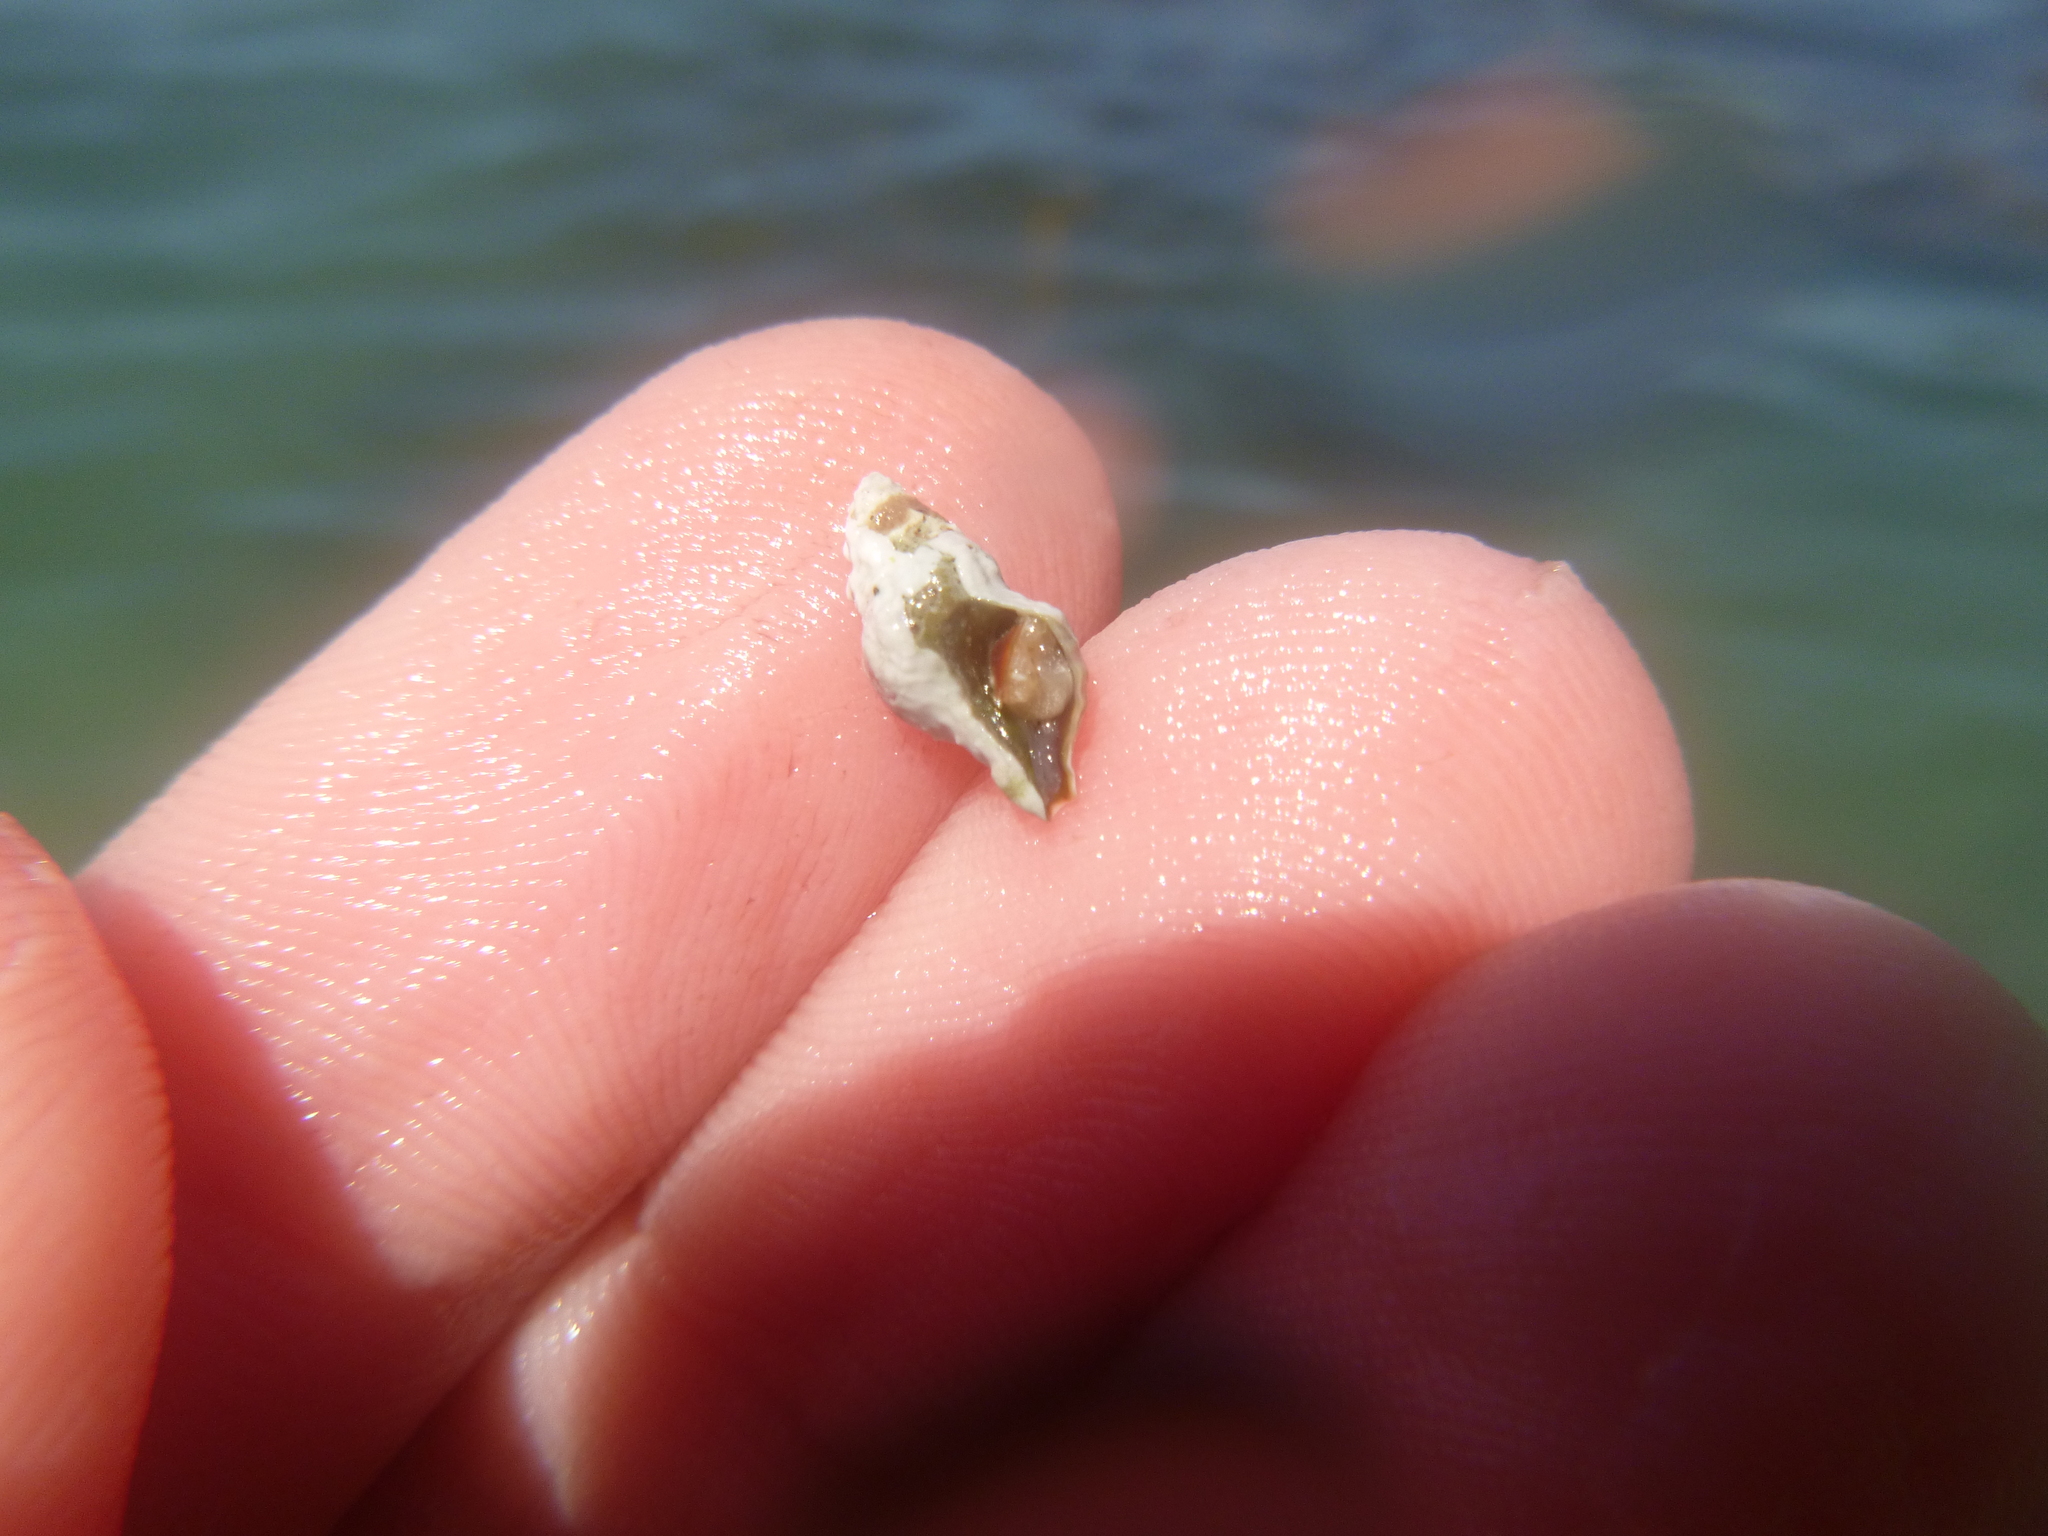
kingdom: Animalia
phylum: Mollusca
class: Gastropoda
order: Neogastropoda
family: Muricidae
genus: Lamellitrophon
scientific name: Lamellitrophon traversi
